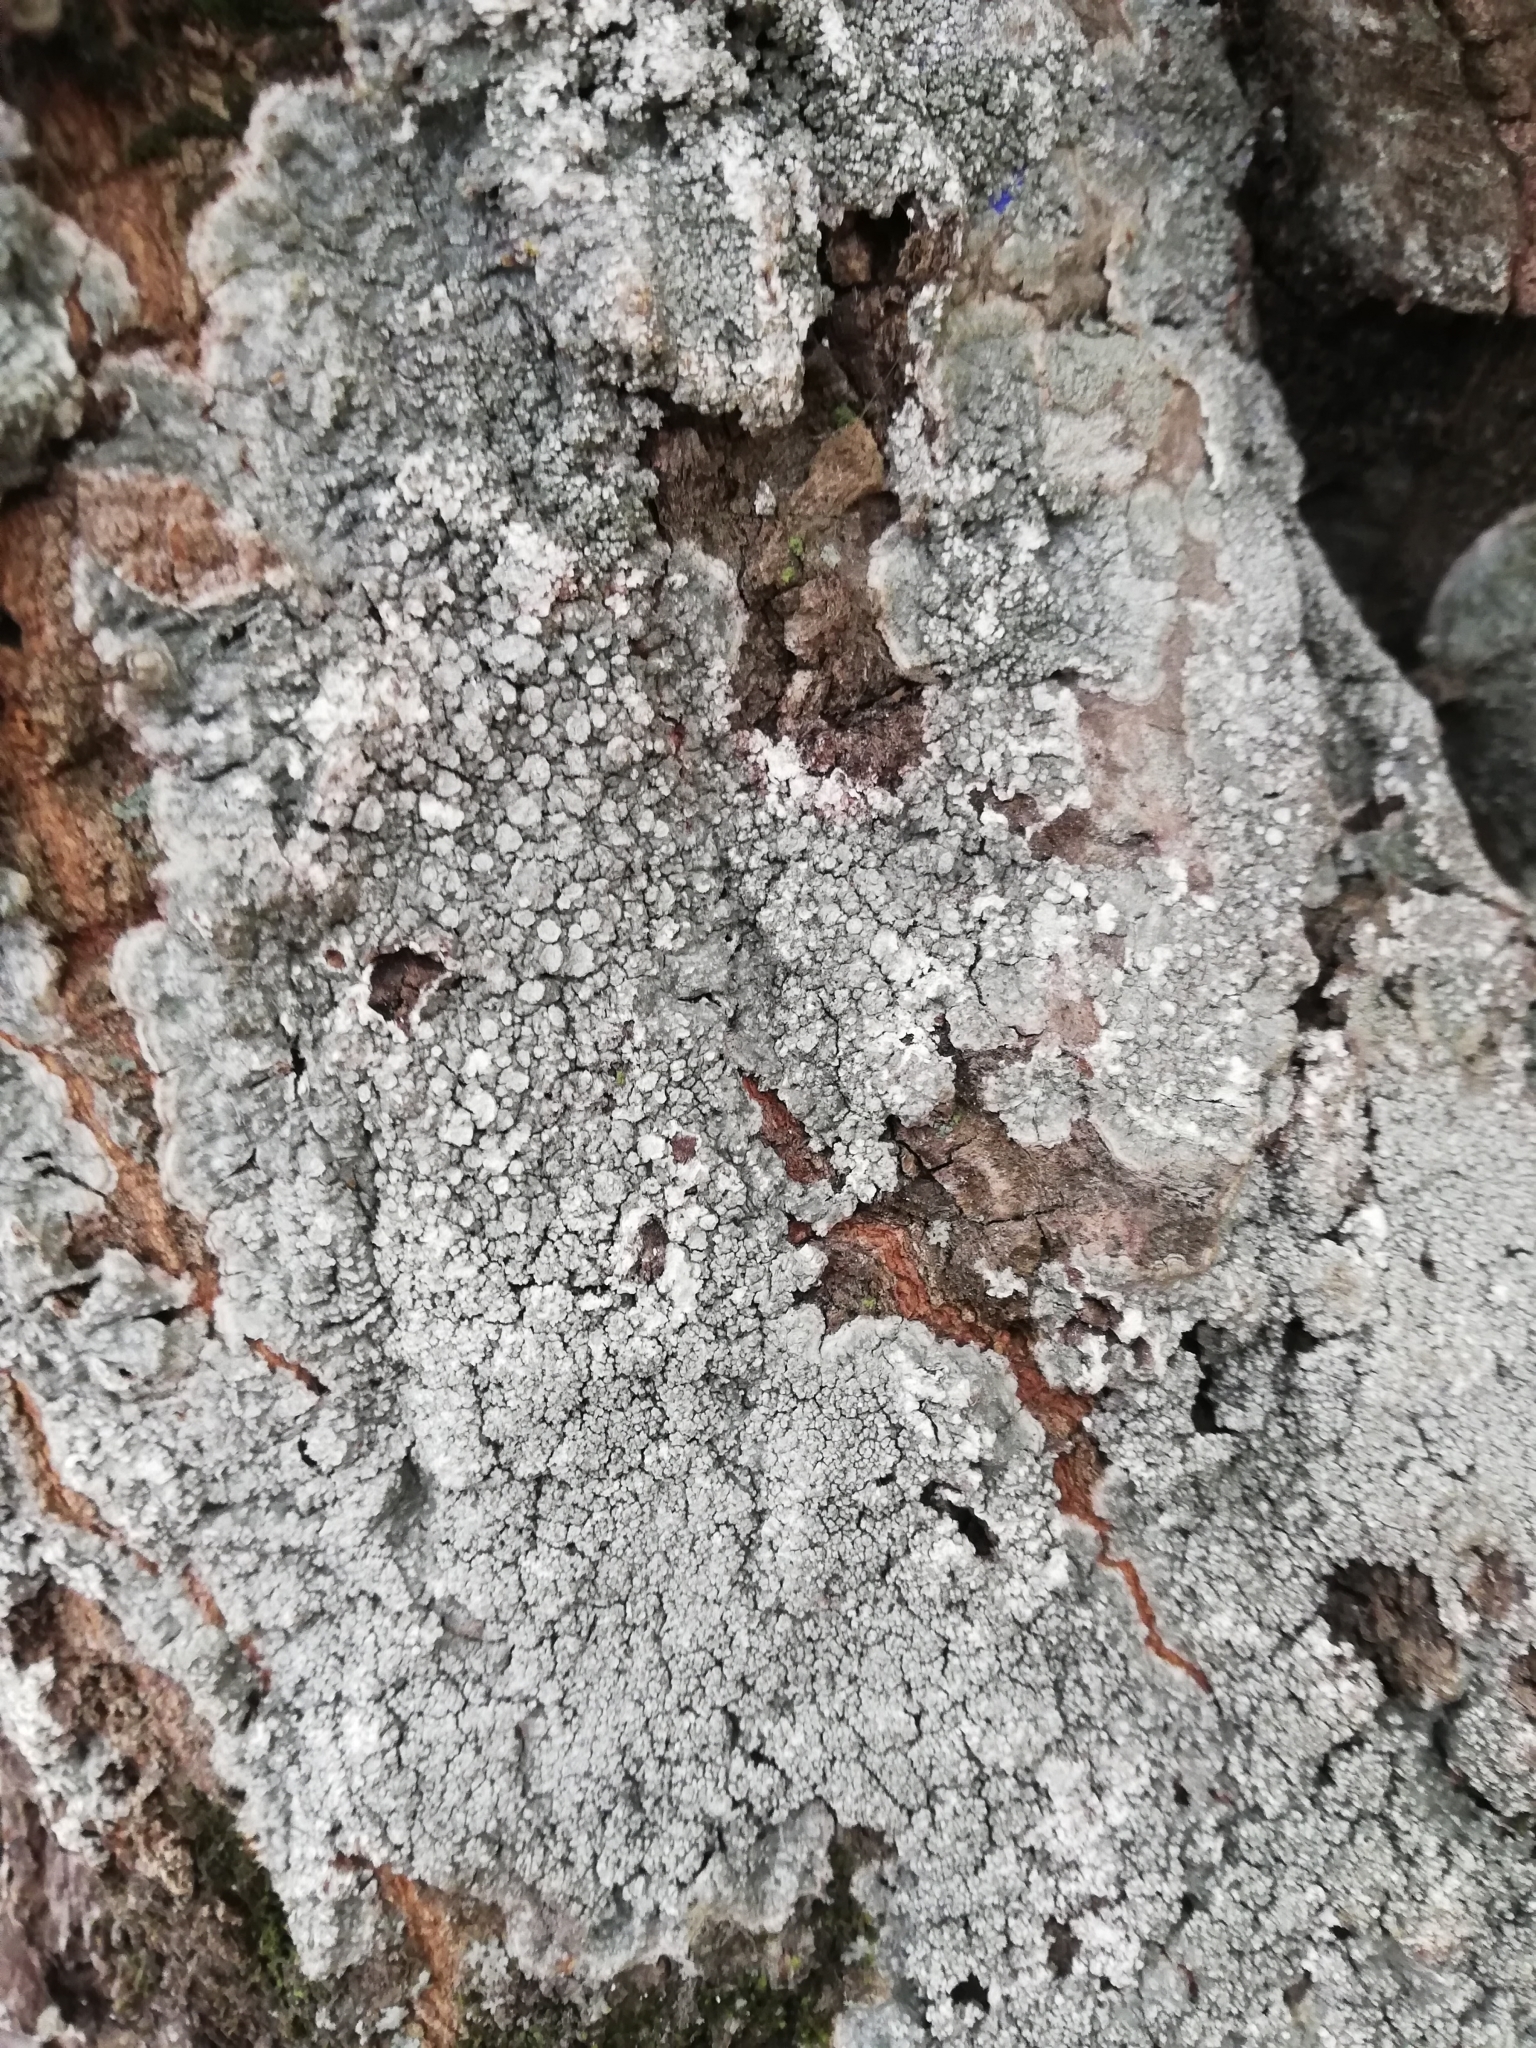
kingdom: Fungi
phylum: Ascomycota
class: Lecanoromycetes
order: Pertusariales
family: Pertusariaceae
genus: Lepra
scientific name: Lepra amara
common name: Bitter wart lichen
